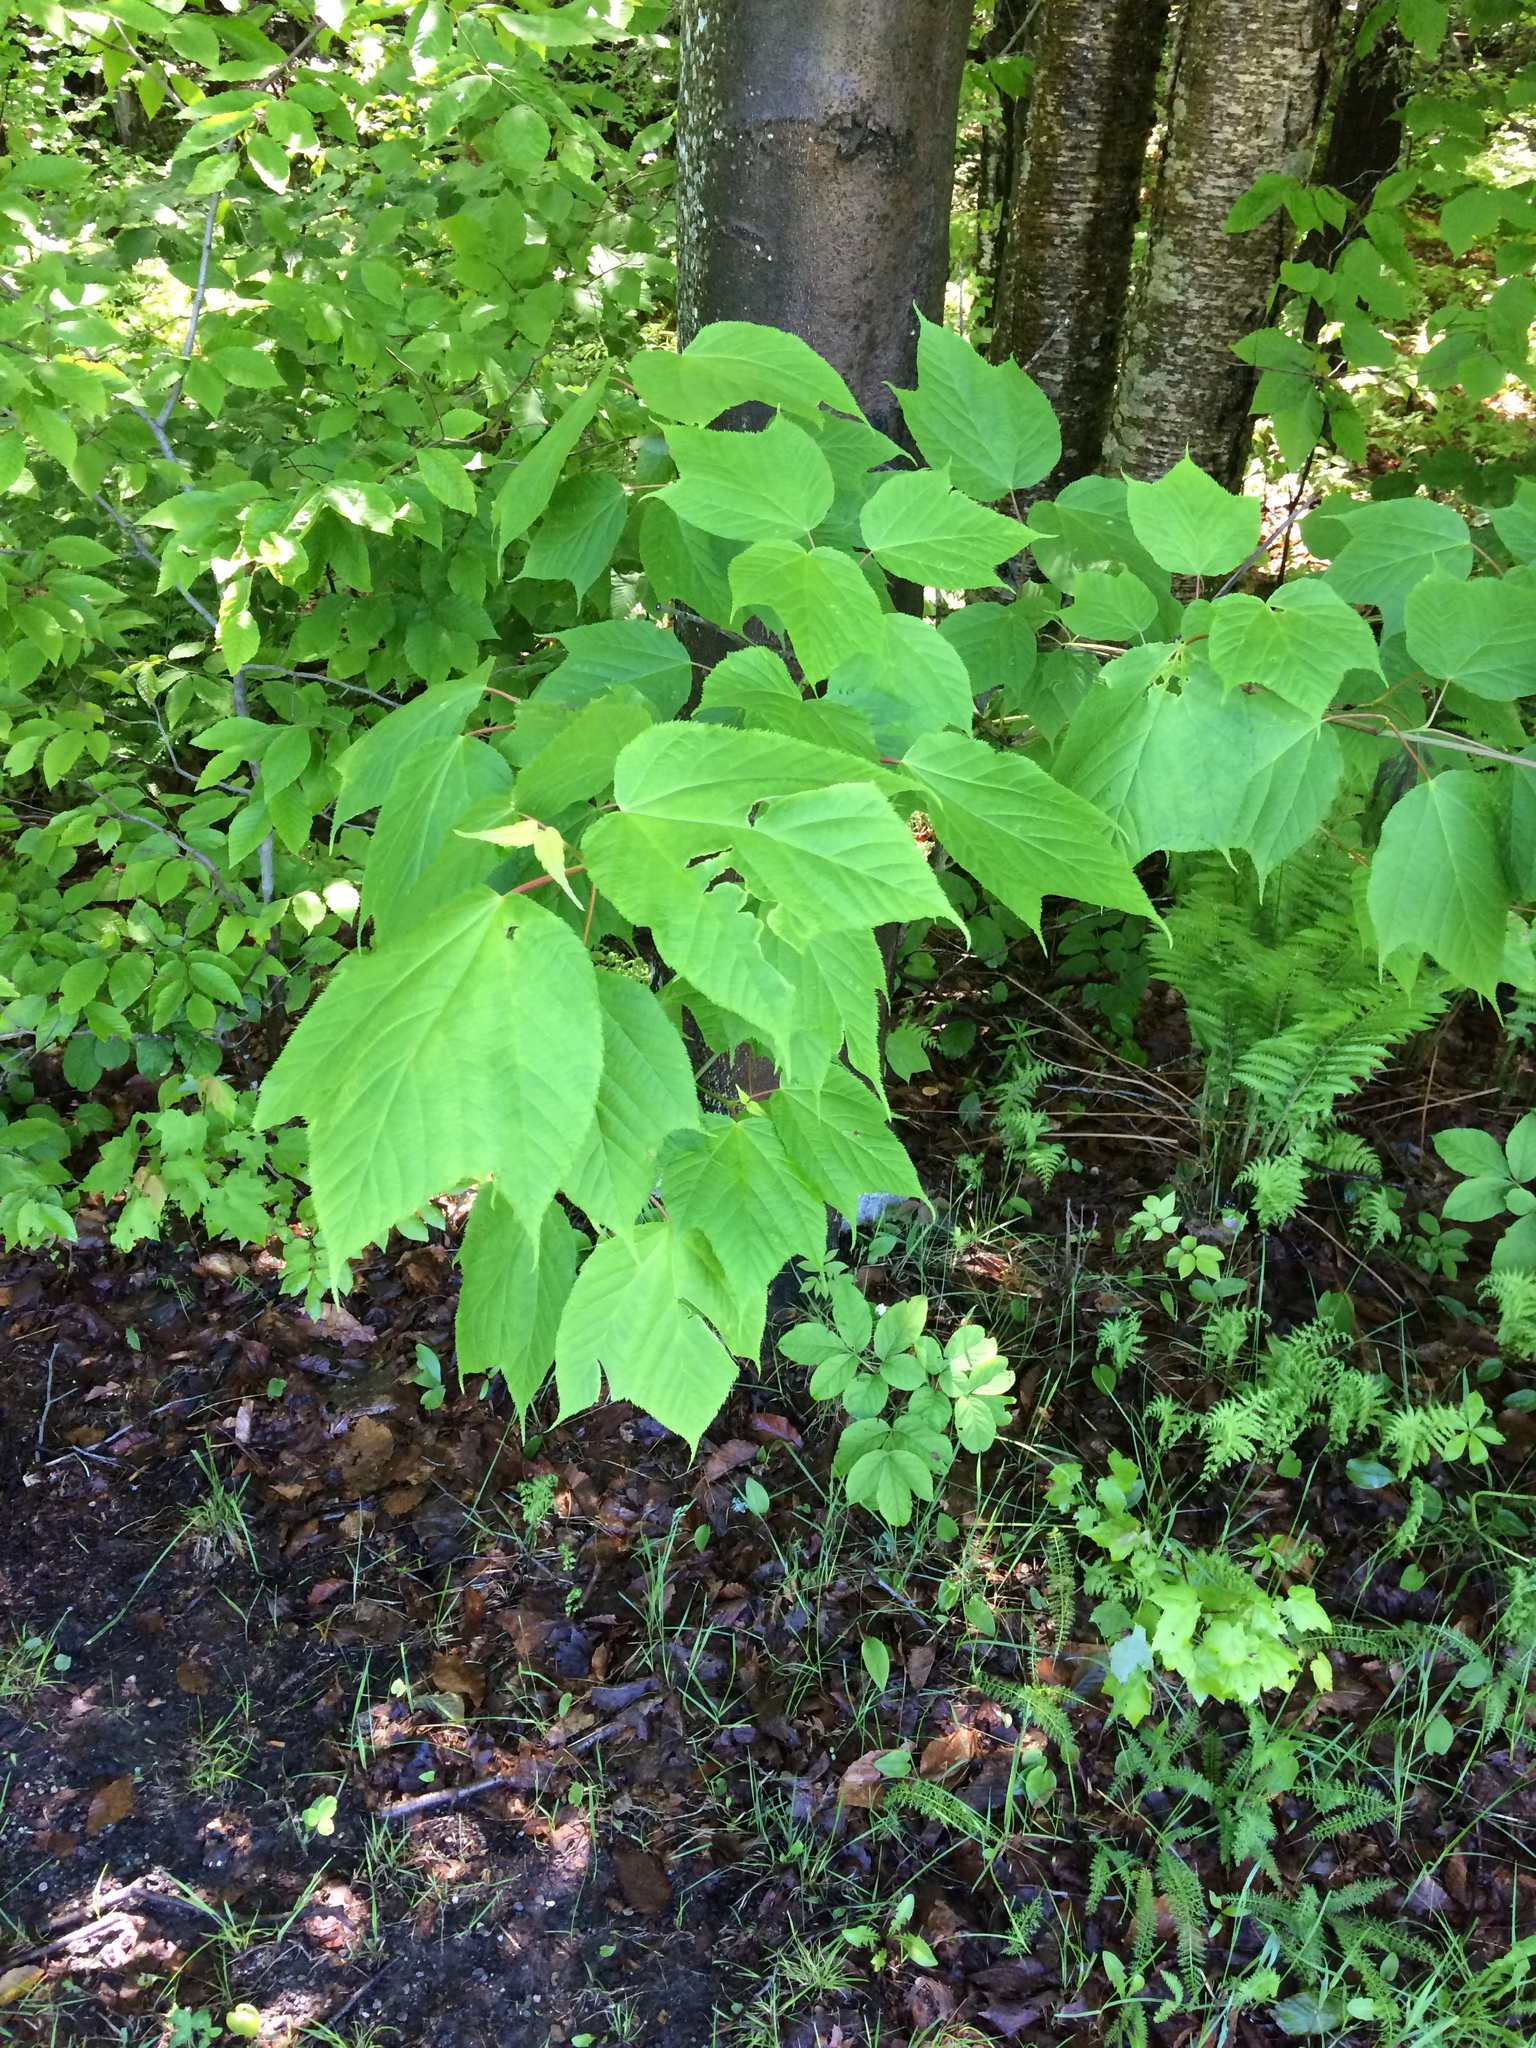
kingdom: Plantae
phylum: Tracheophyta
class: Magnoliopsida
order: Sapindales
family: Sapindaceae
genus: Acer
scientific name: Acer pensylvanicum
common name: Moosewood
